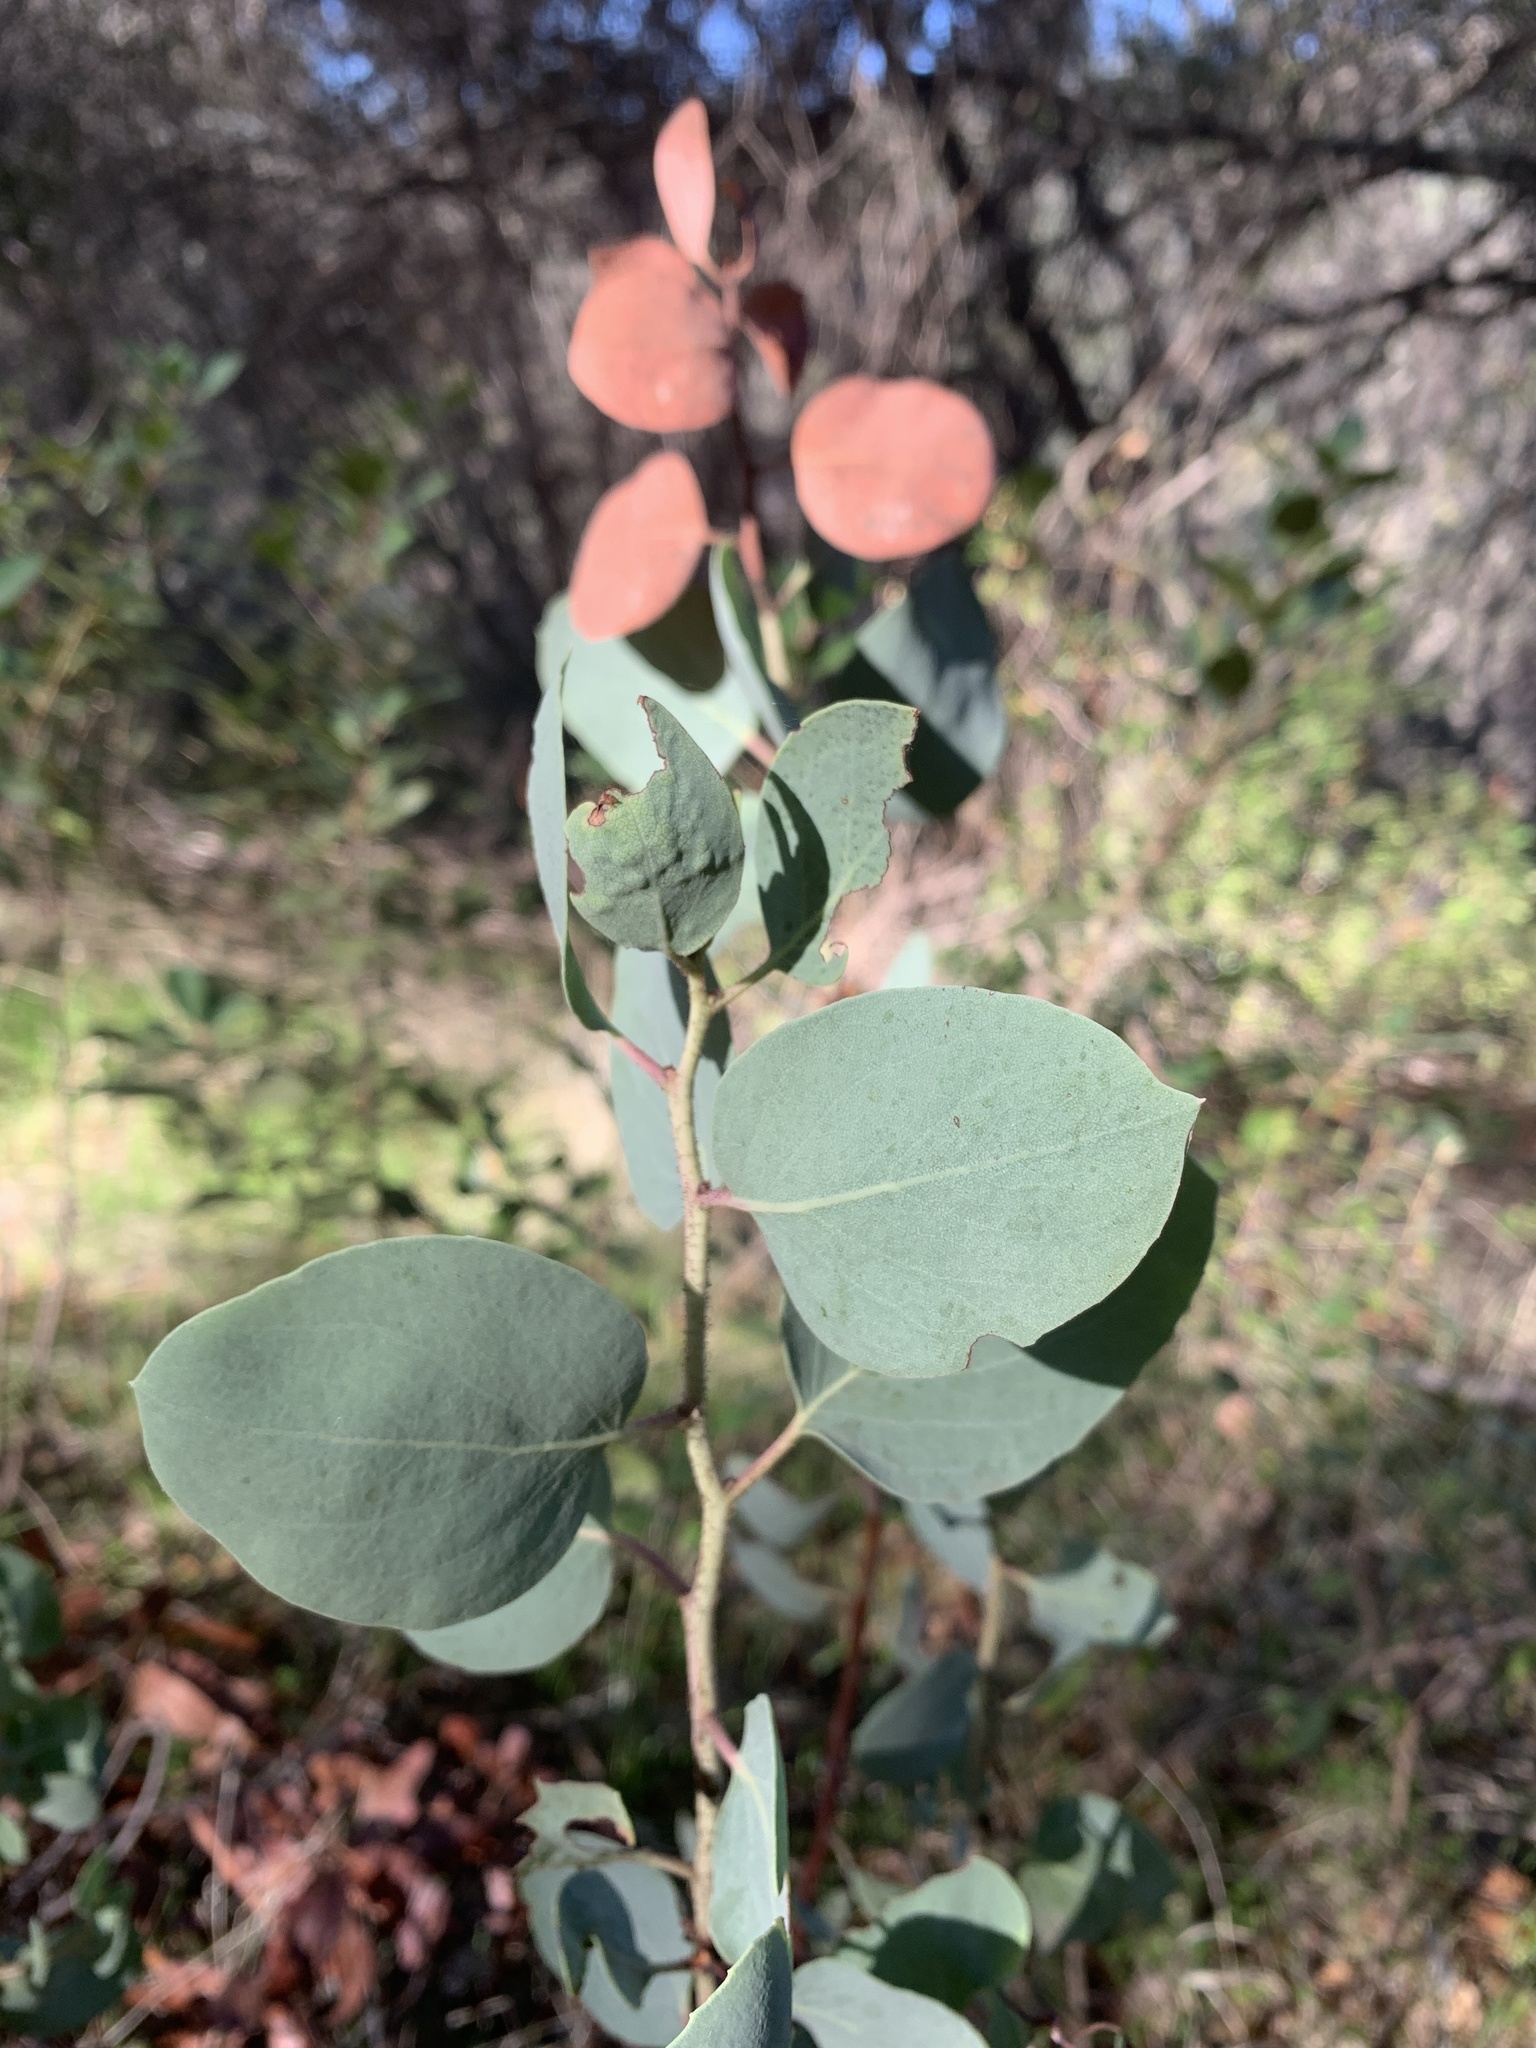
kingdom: Plantae
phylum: Tracheophyta
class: Magnoliopsida
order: Ericales
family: Ericaceae
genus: Arctostaphylos
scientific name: Arctostaphylos viscida
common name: White-leaf manzanita
